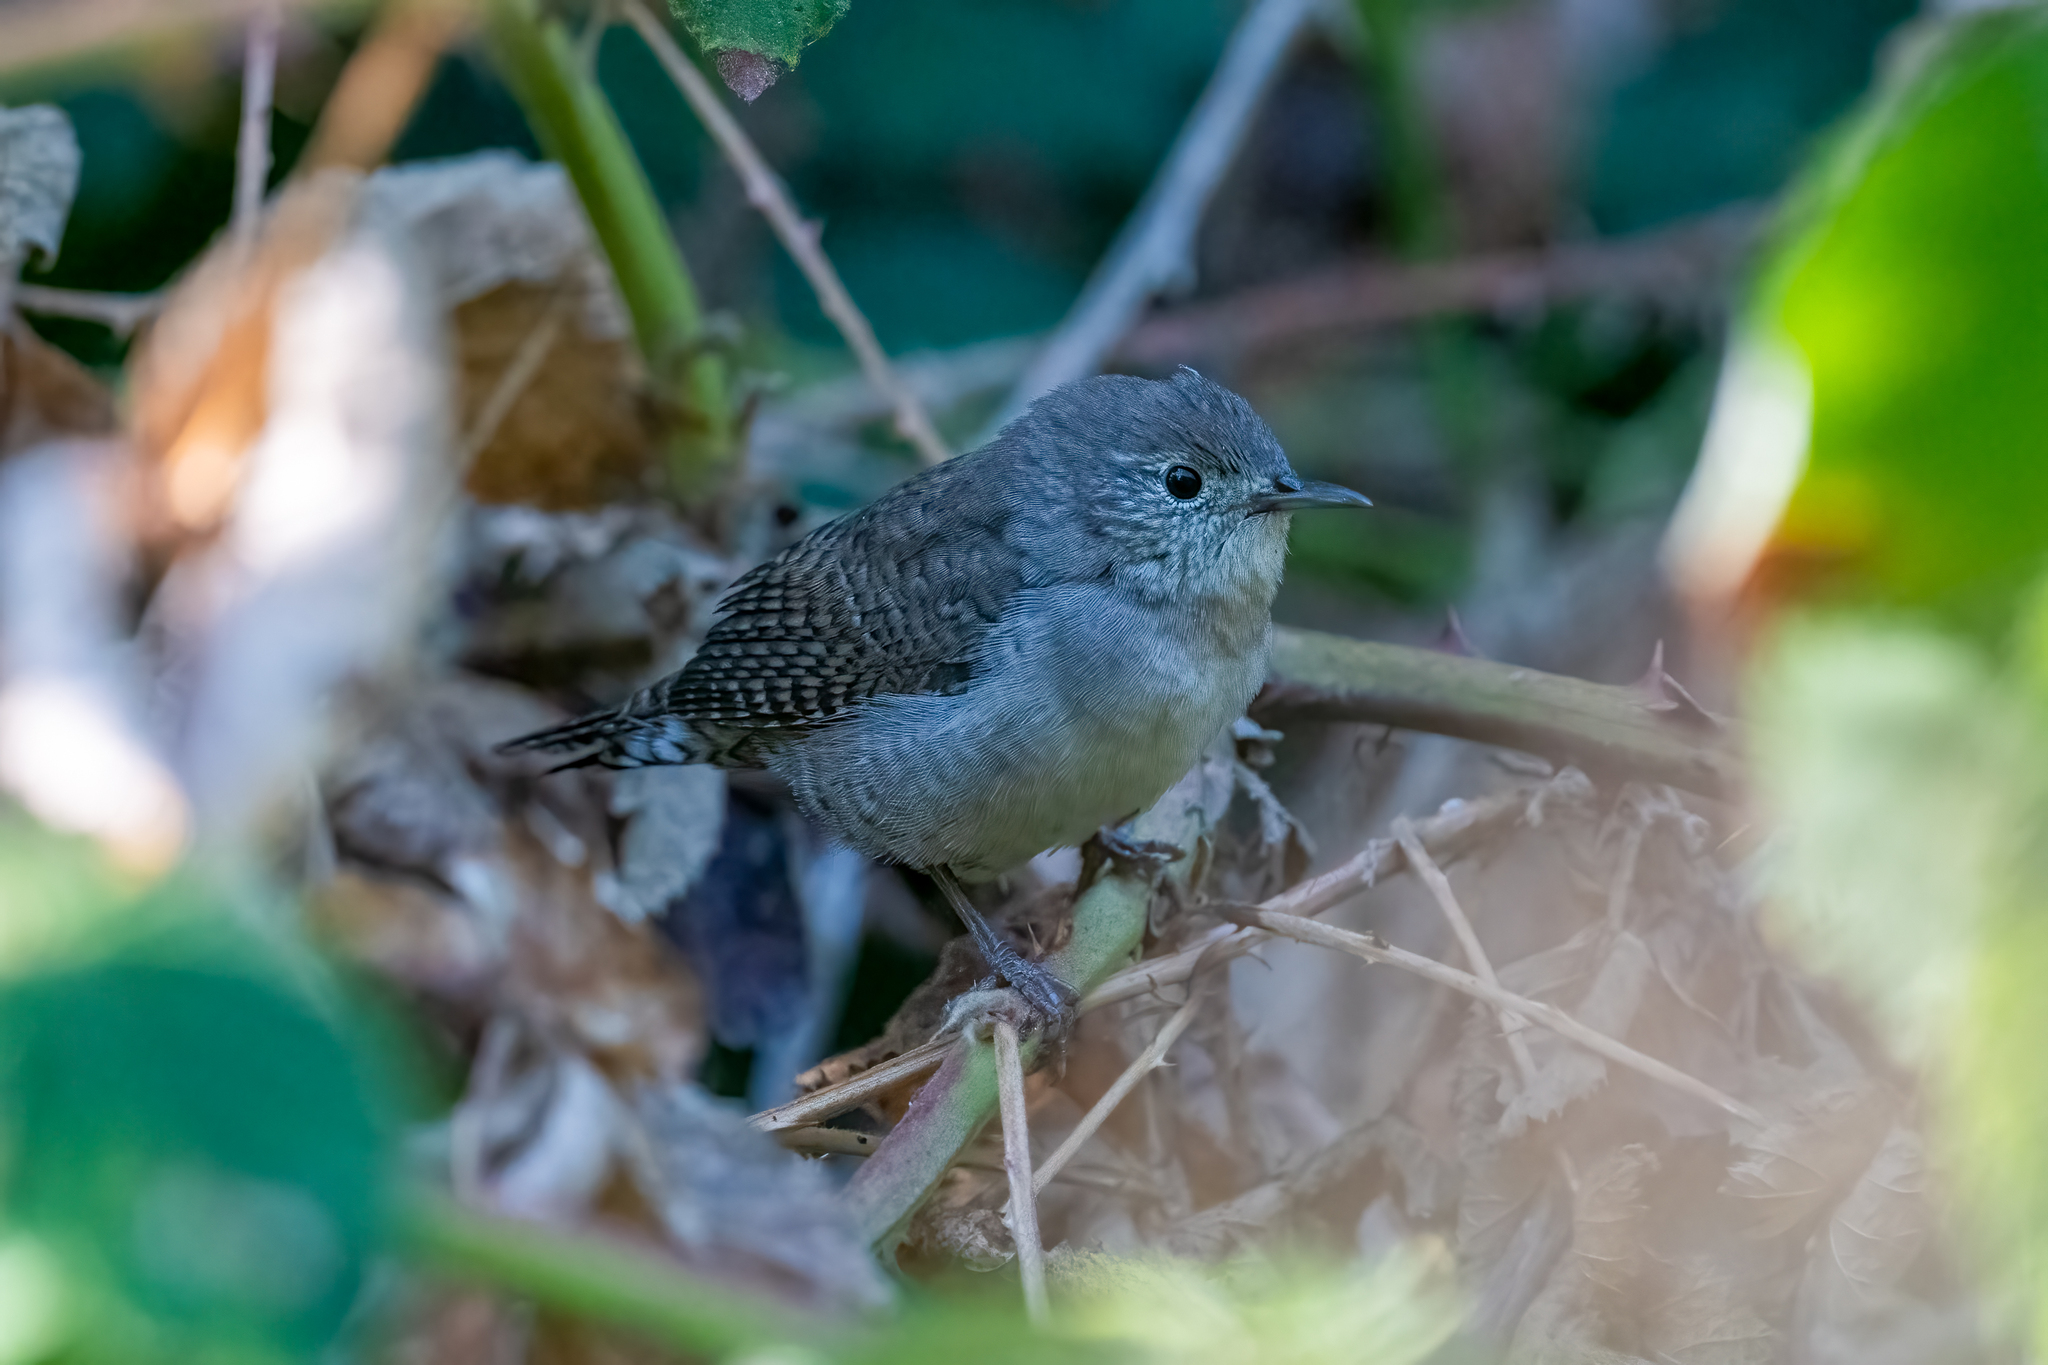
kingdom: Animalia
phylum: Chordata
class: Aves
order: Passeriformes
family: Troglodytidae
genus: Troglodytes
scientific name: Troglodytes aedon
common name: House wren
